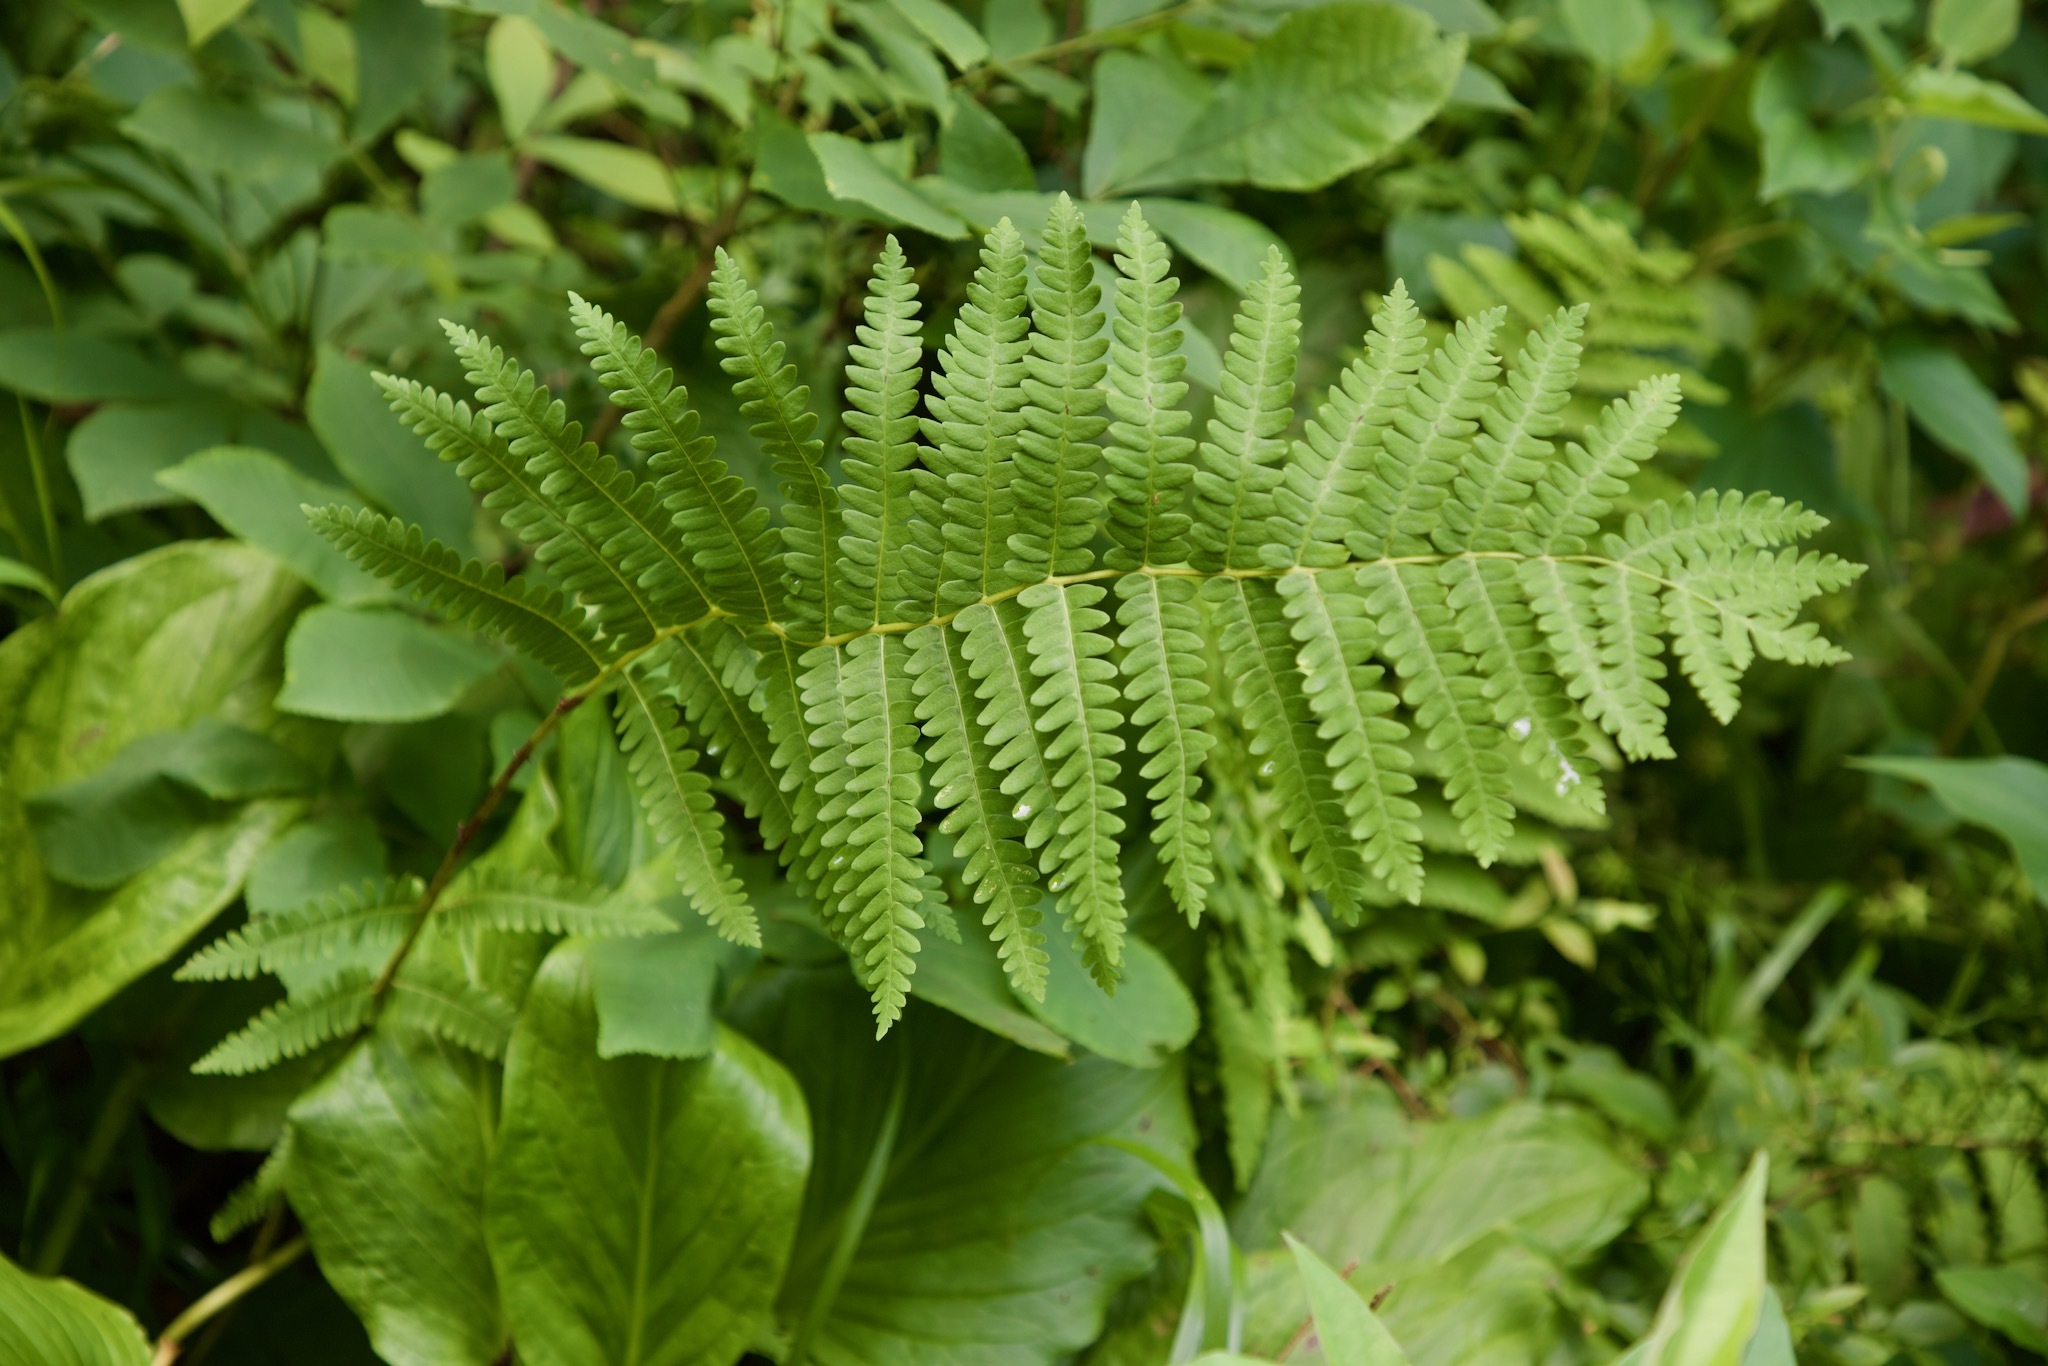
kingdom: Plantae
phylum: Tracheophyta
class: Polypodiopsida
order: Osmundales
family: Osmundaceae
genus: Claytosmunda
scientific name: Claytosmunda claytoniana
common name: Clayton's fern
